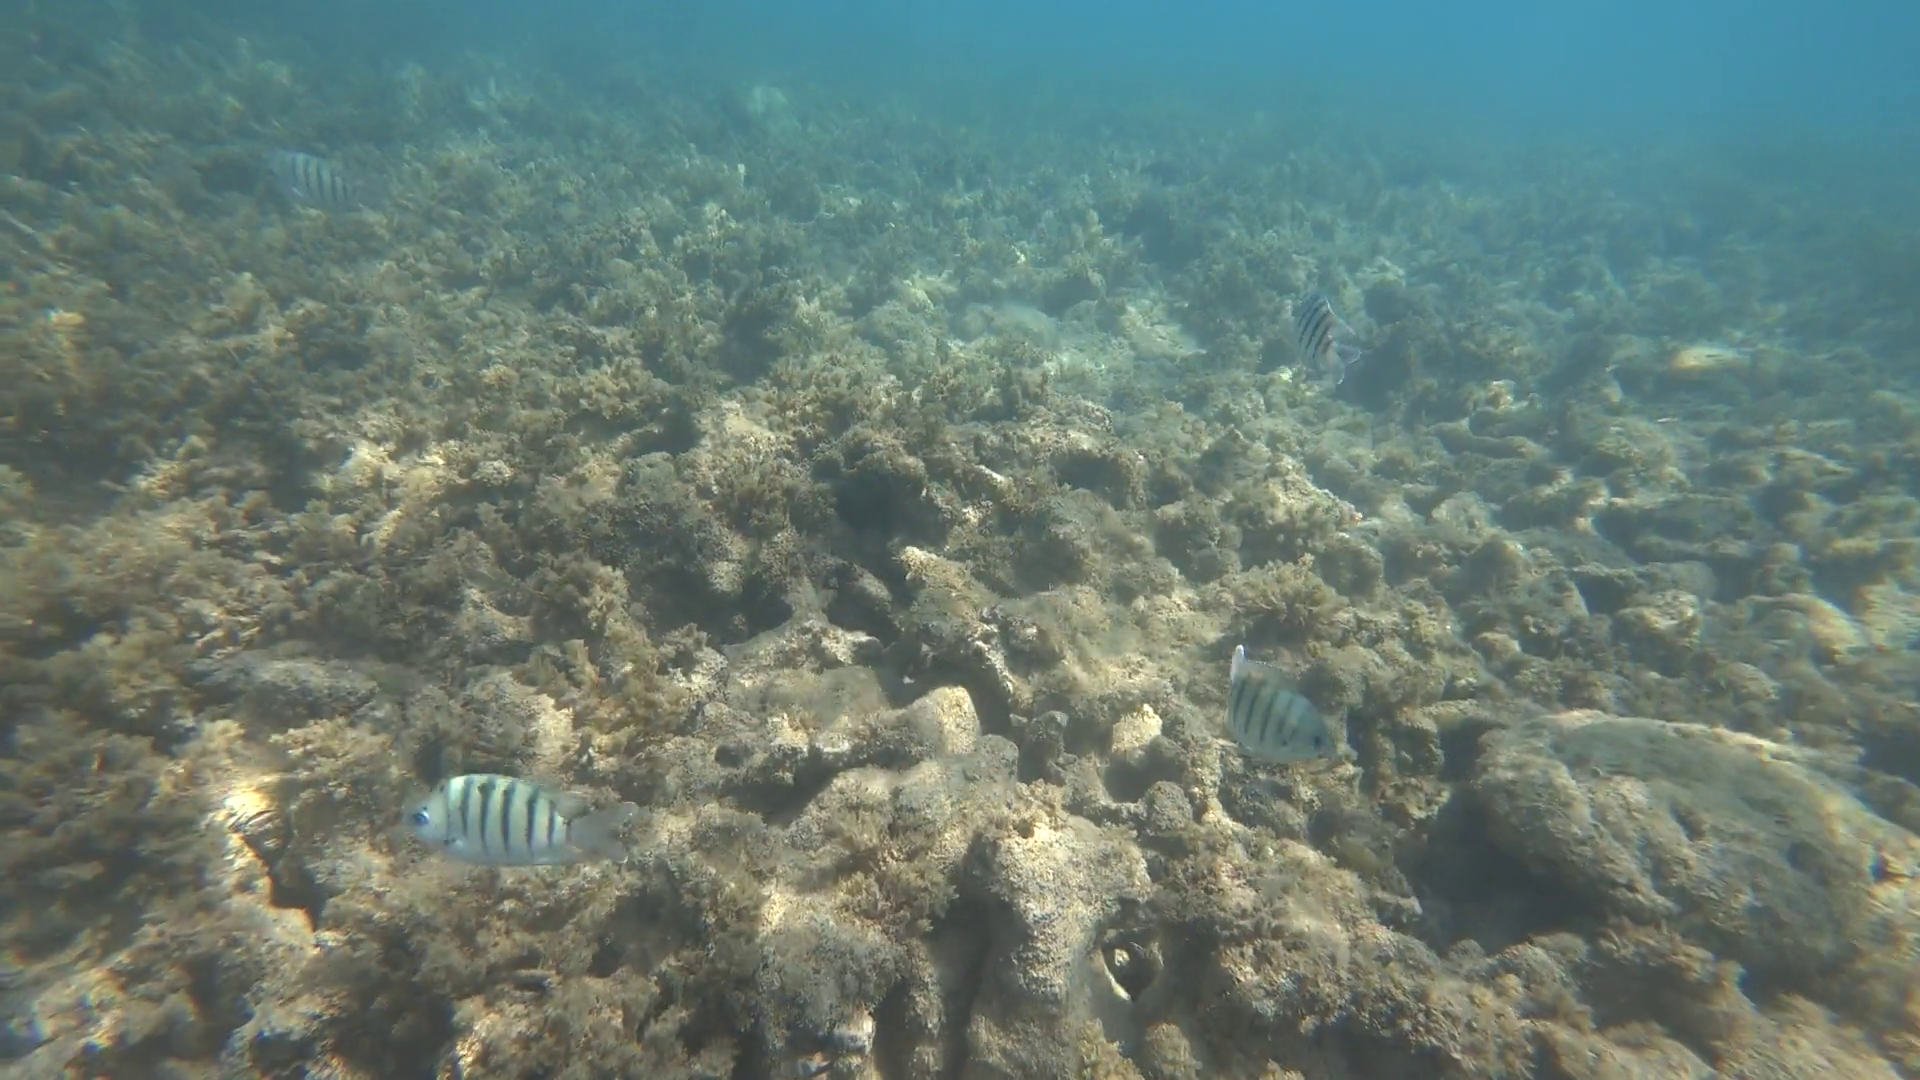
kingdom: Animalia
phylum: Chordata
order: Perciformes
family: Pomacentridae
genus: Abudefduf
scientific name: Abudefduf bengalensis
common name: Bengal sergeant
